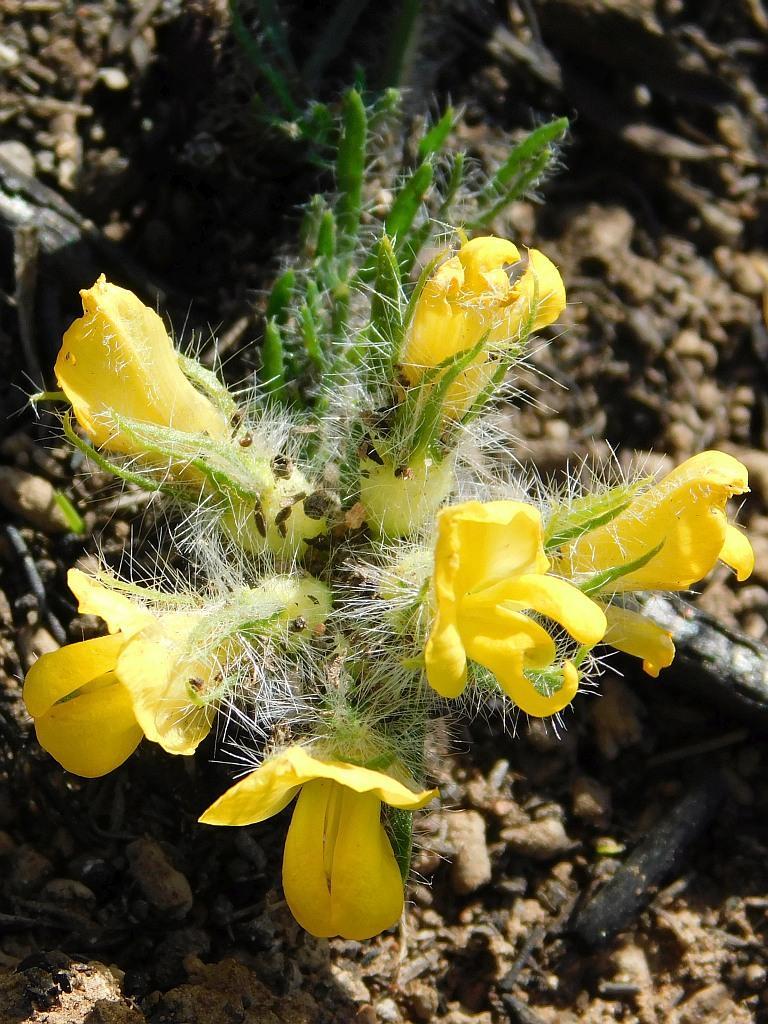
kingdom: Plantae
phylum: Tracheophyta
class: Magnoliopsida
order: Fabales
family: Fabaceae
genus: Lotononis
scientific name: Lotononis involucrata
